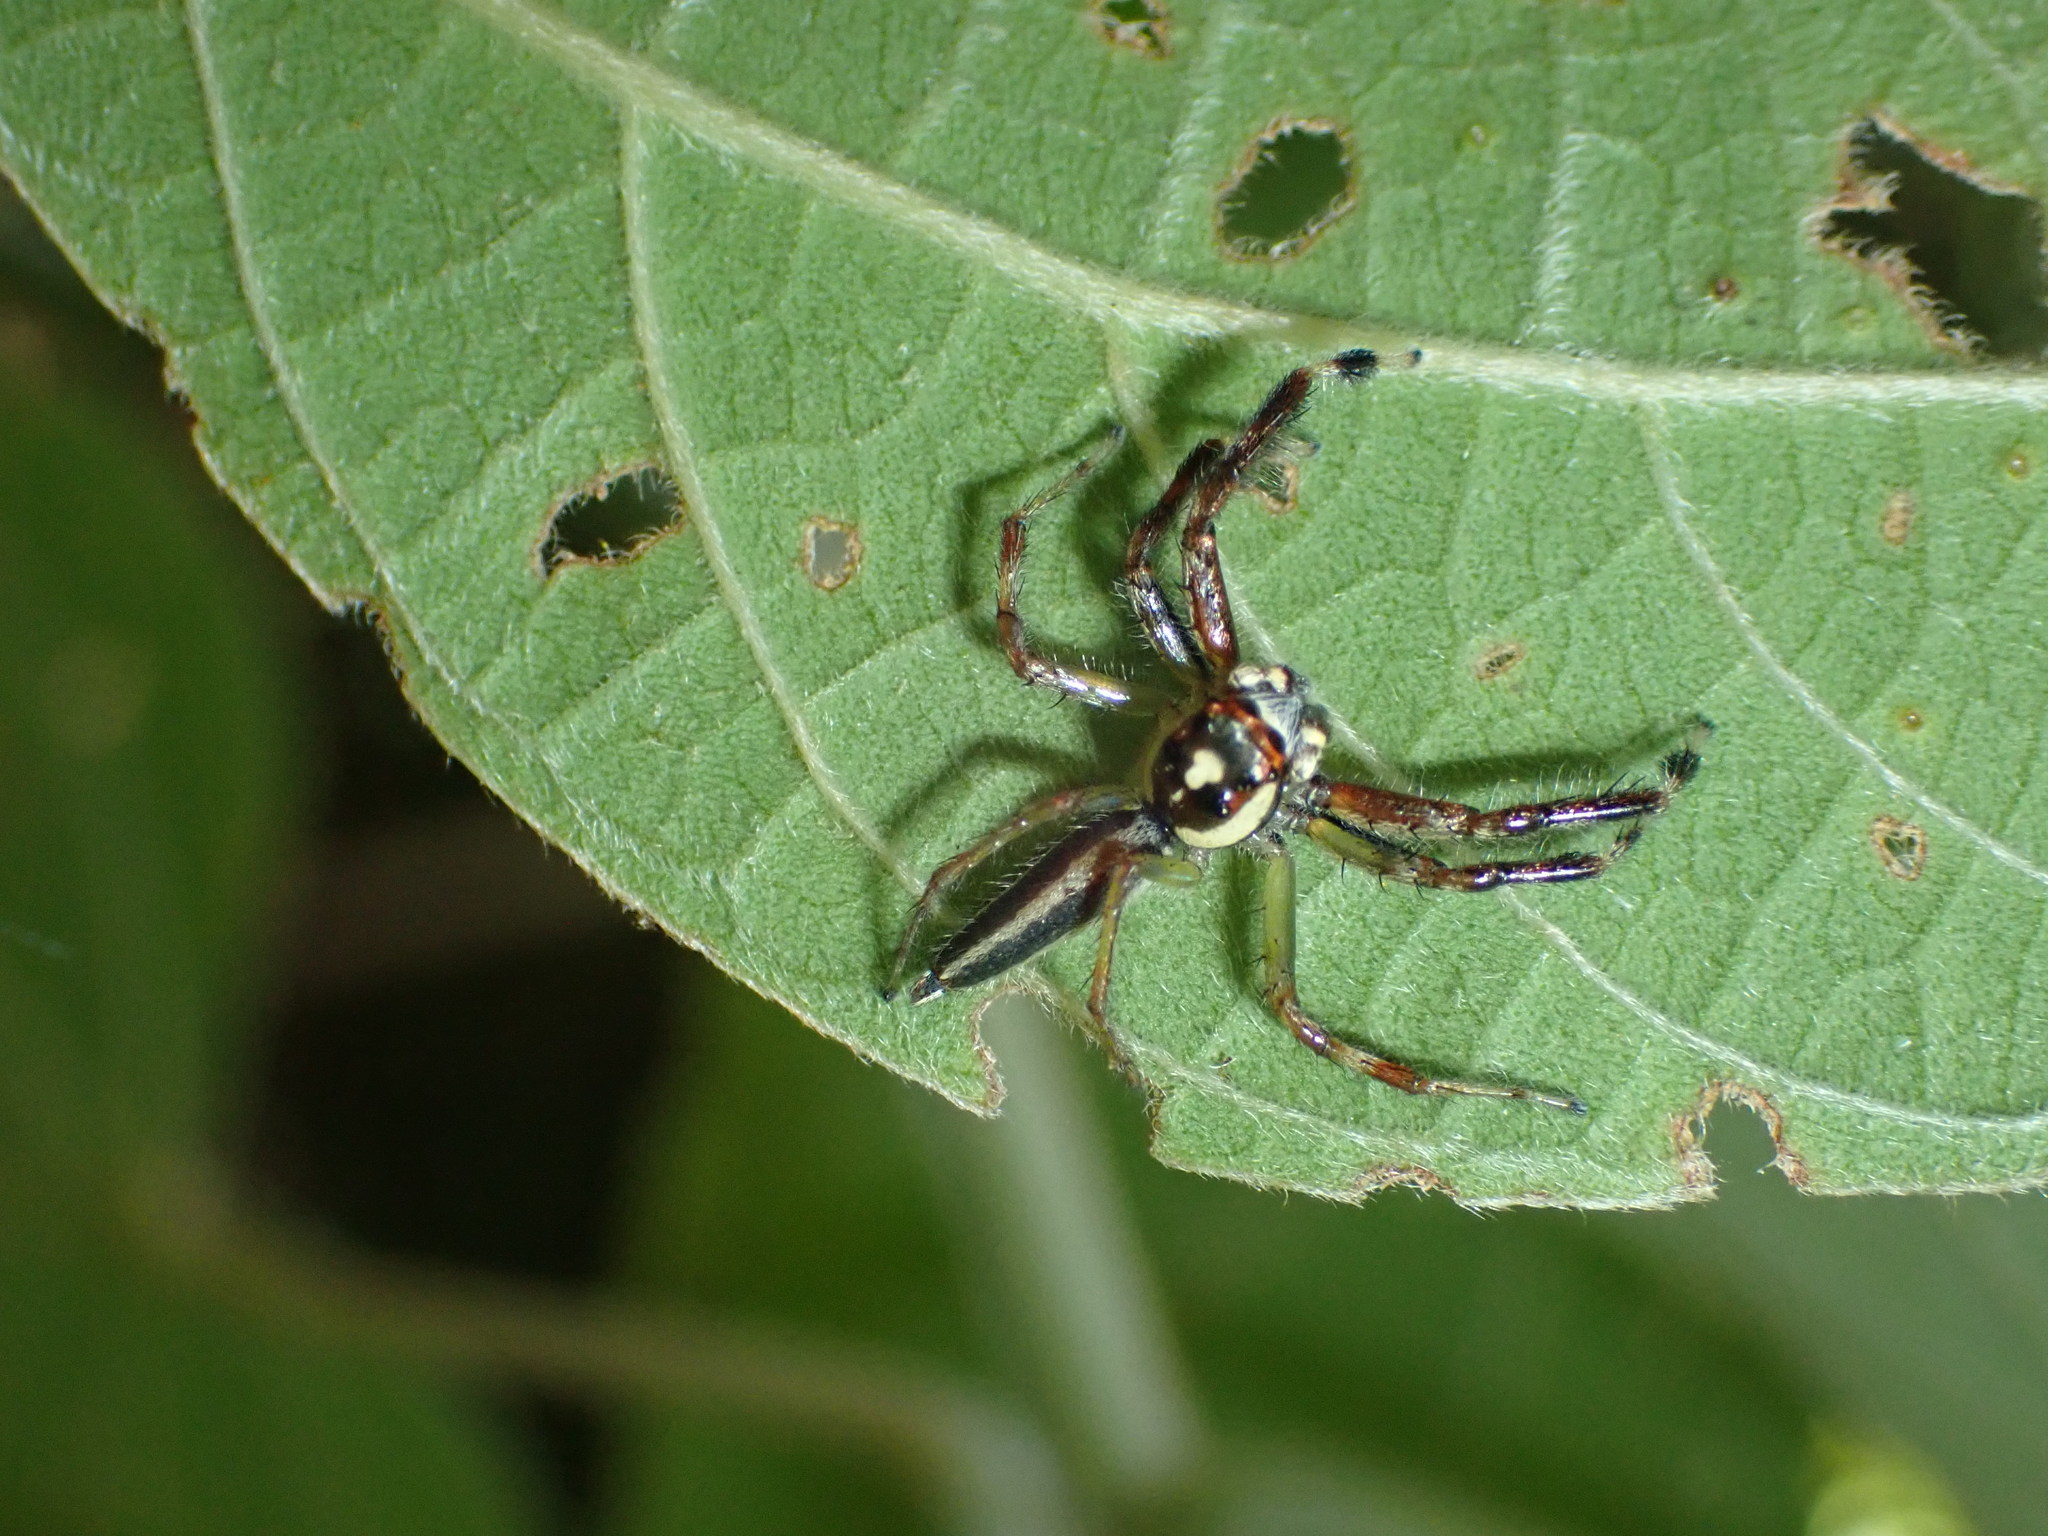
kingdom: Animalia
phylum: Arthropoda
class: Arachnida
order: Araneae
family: Salticidae
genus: Telamonia
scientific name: Telamonia dimidiata
